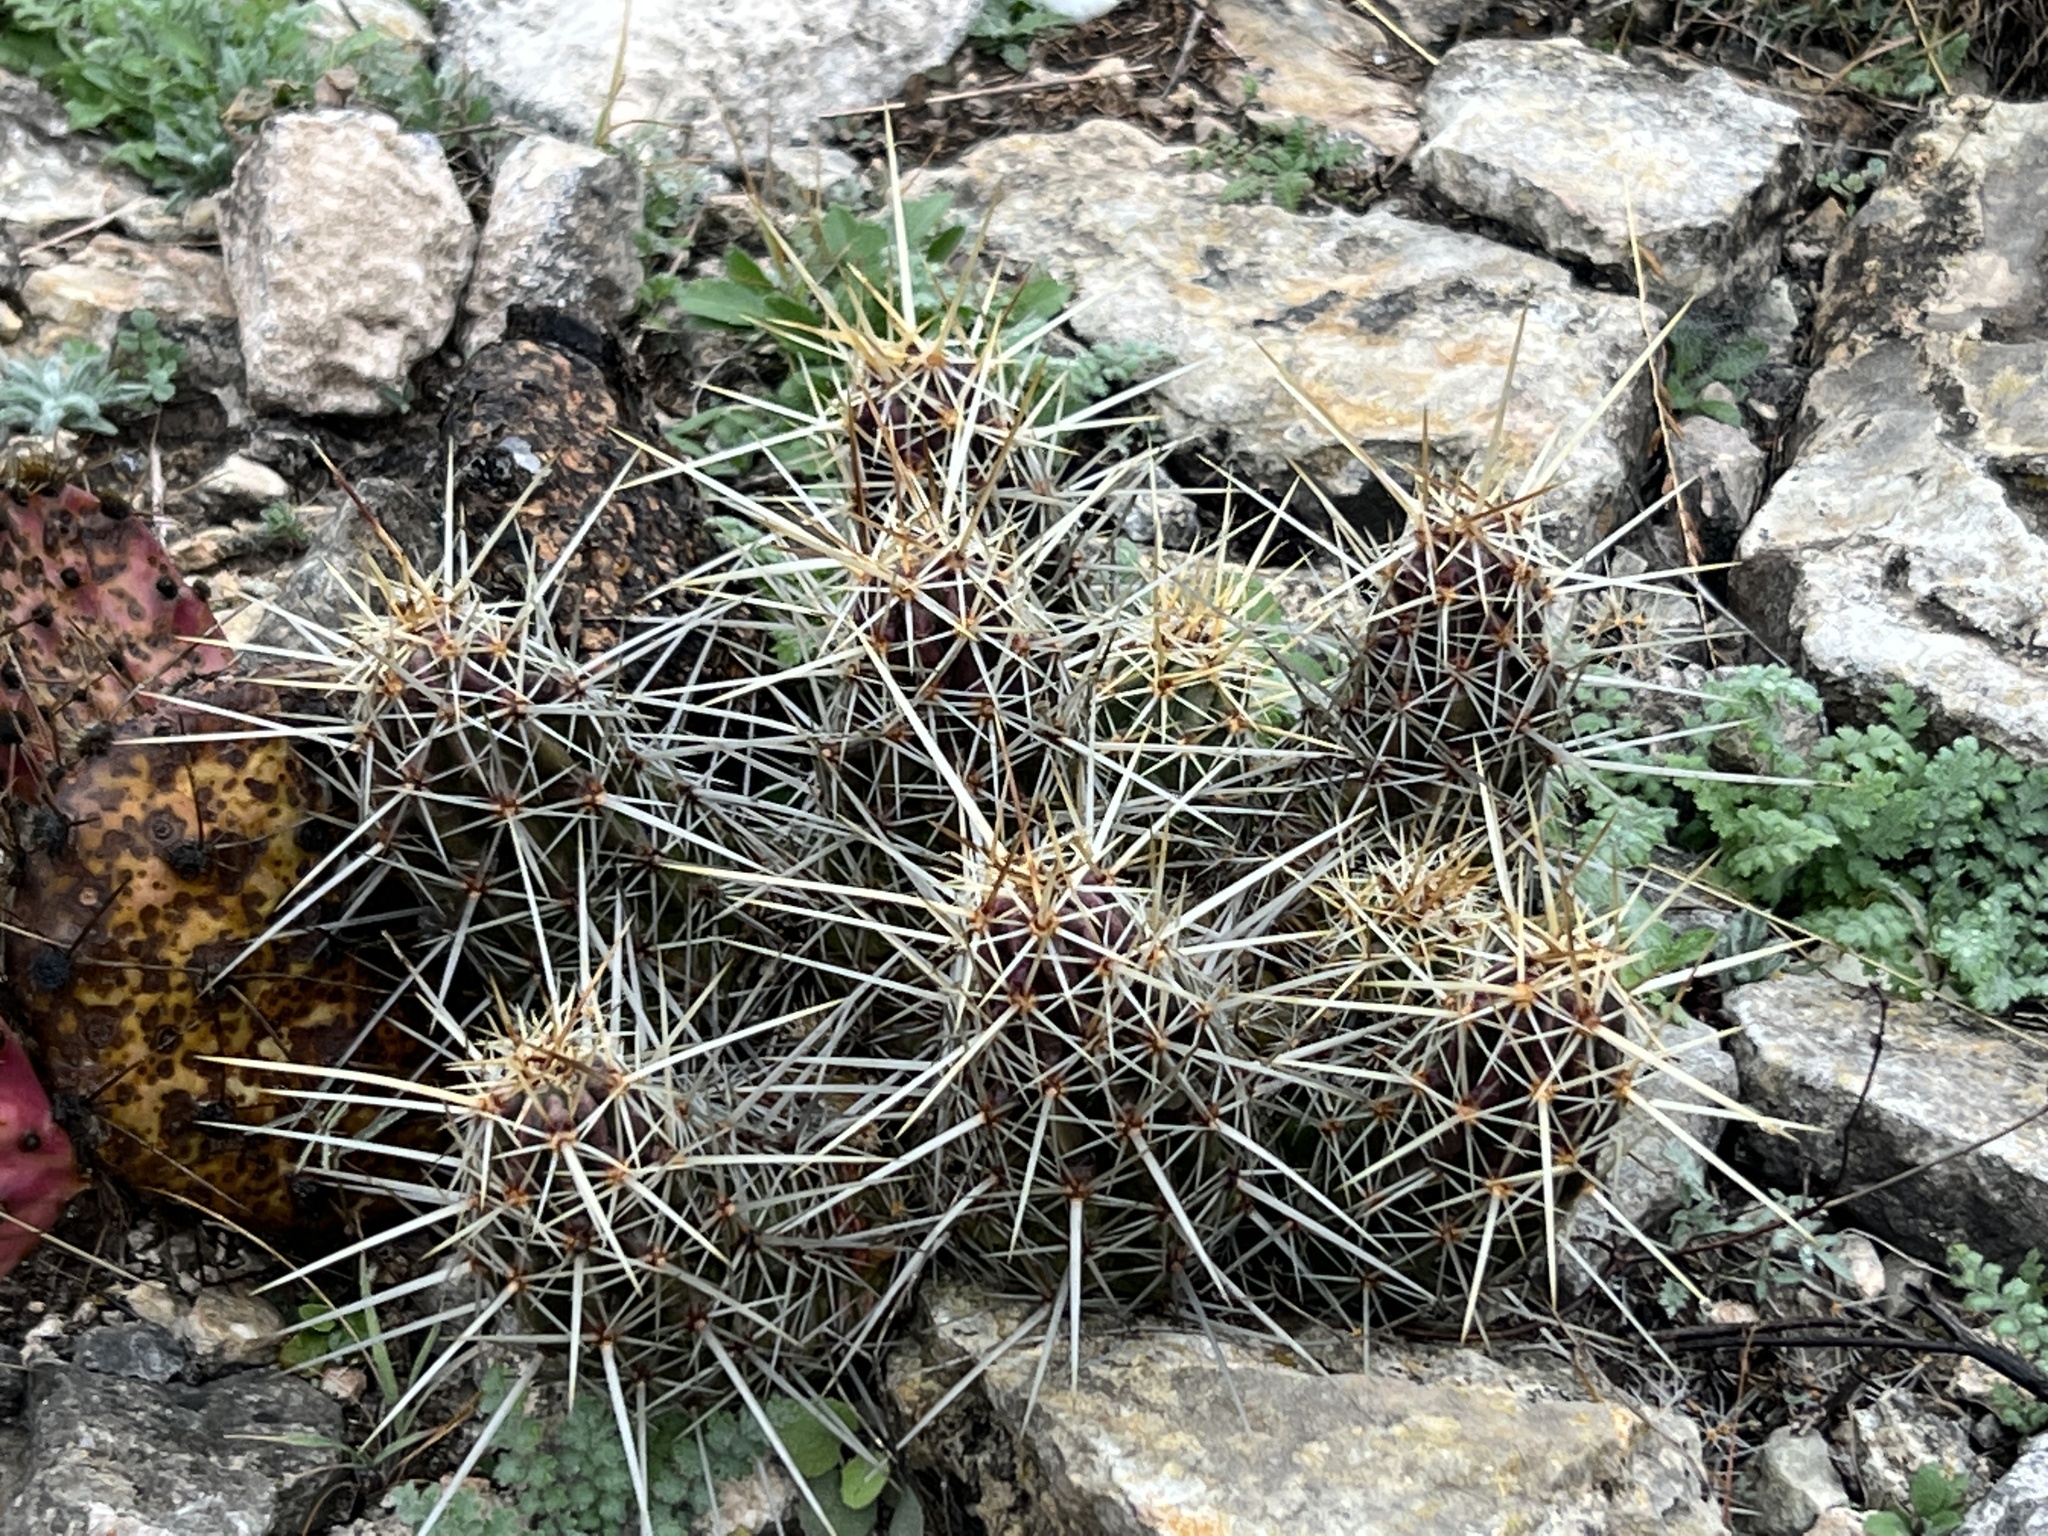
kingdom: Plantae
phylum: Tracheophyta
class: Magnoliopsida
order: Caryophyllales
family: Cactaceae
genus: Echinocereus
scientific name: Echinocereus enneacanthus
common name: Pitaya
